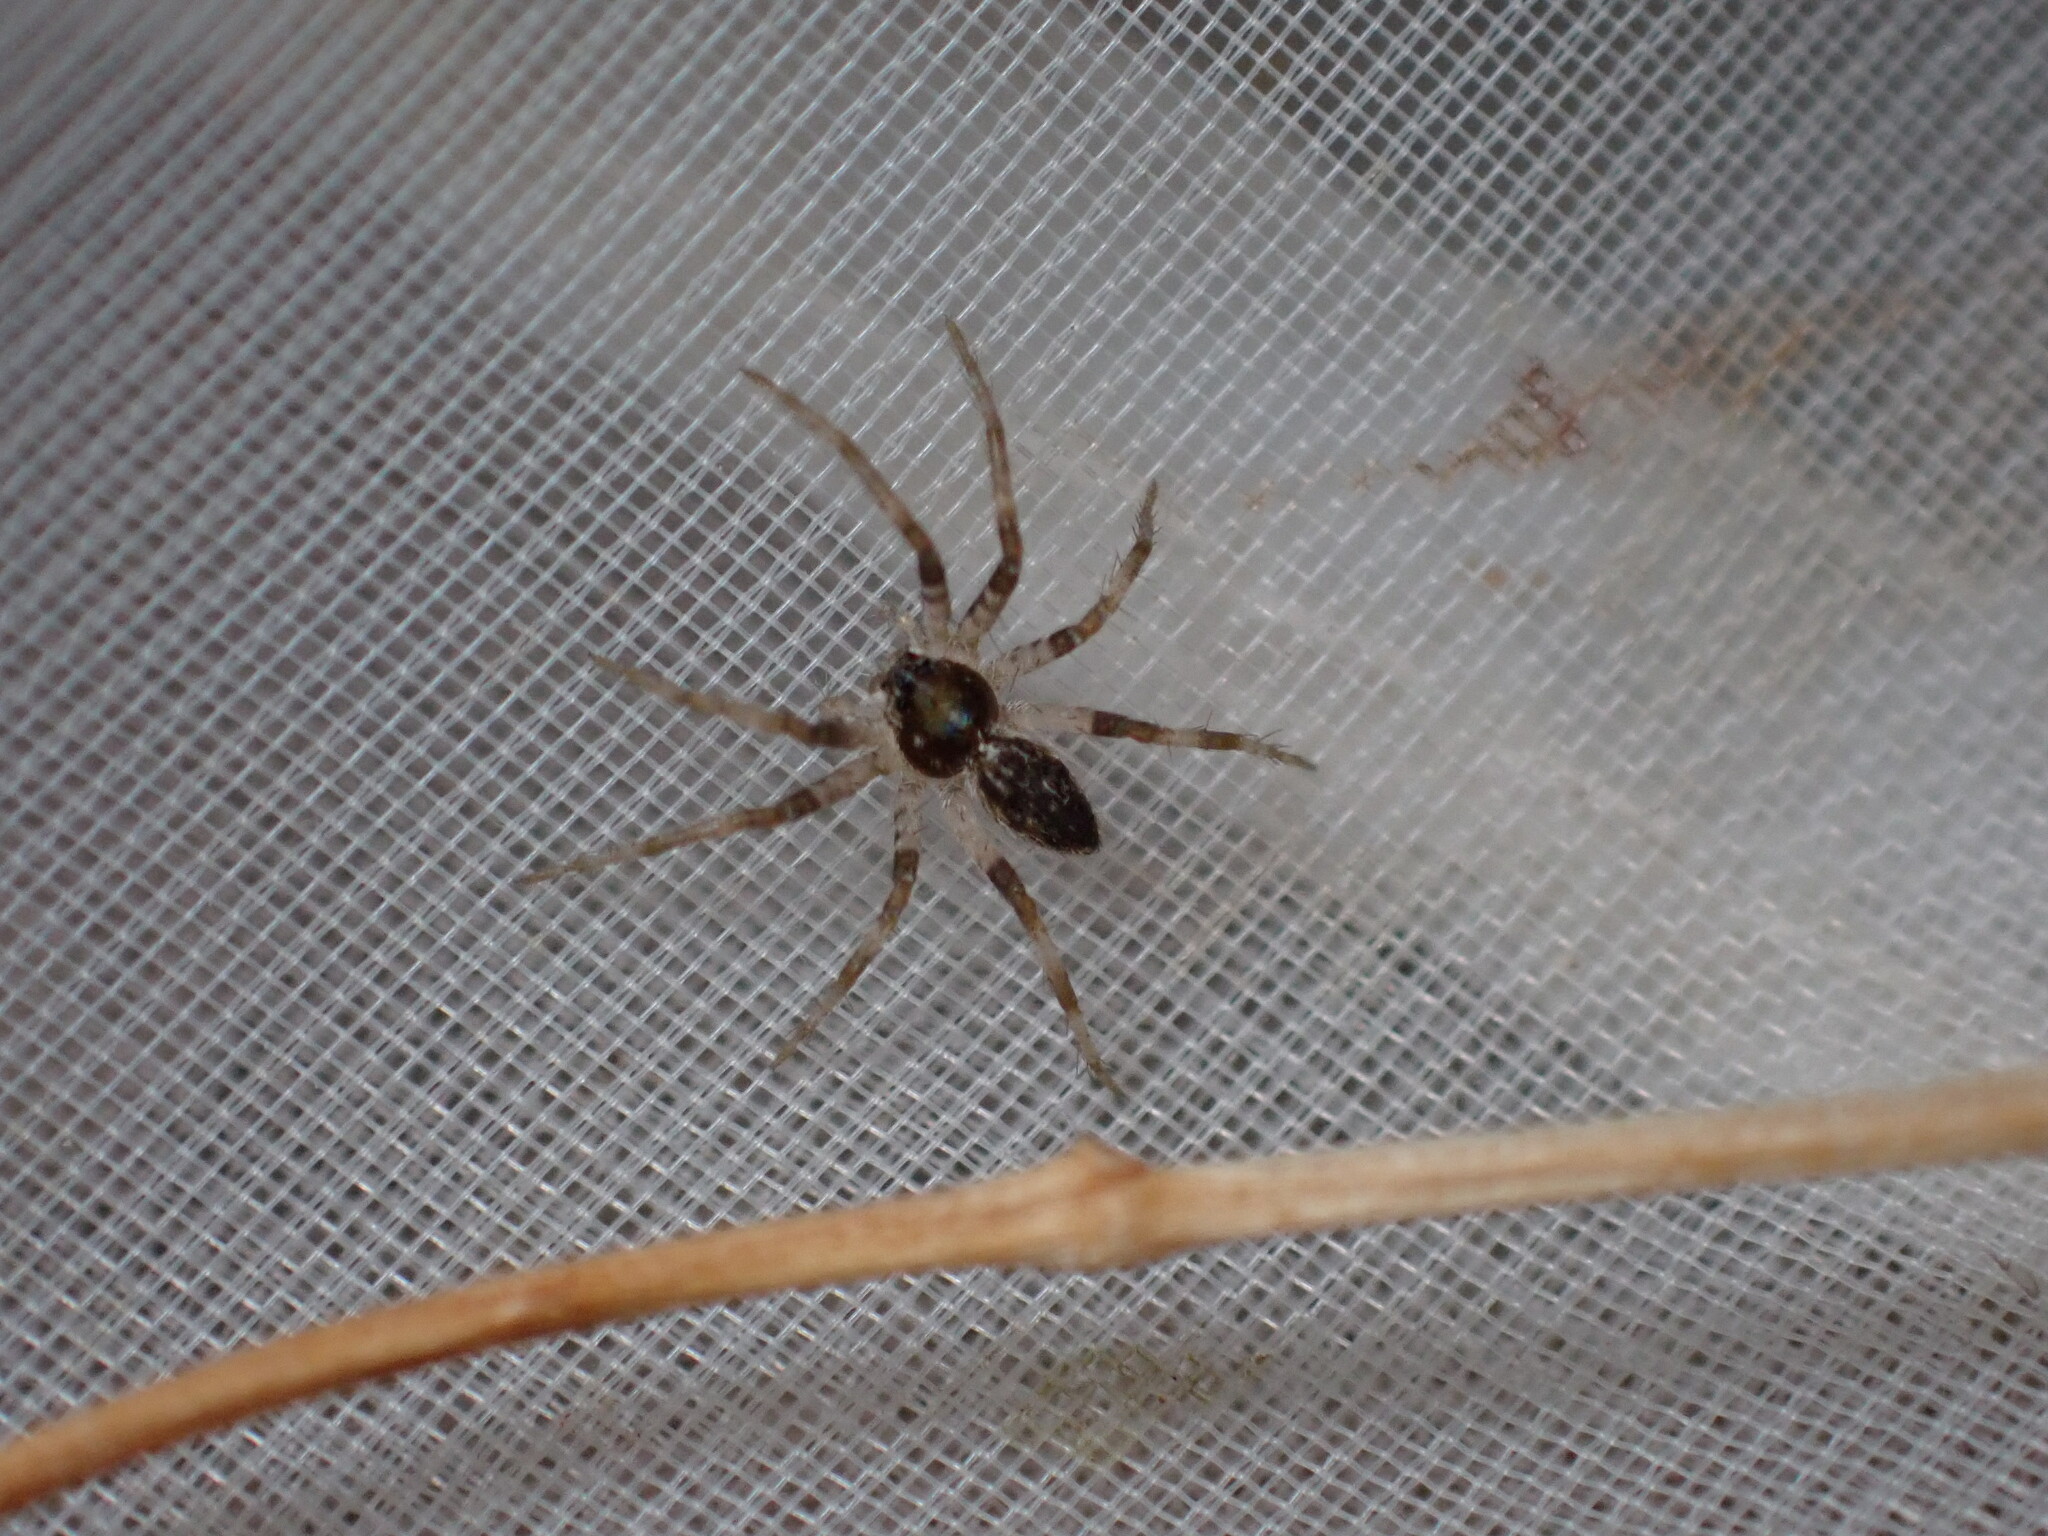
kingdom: Animalia
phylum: Arthropoda
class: Arachnida
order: Araneae
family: Pisauridae
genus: Pisaura
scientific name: Pisaura mirabilis
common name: Tent spider
